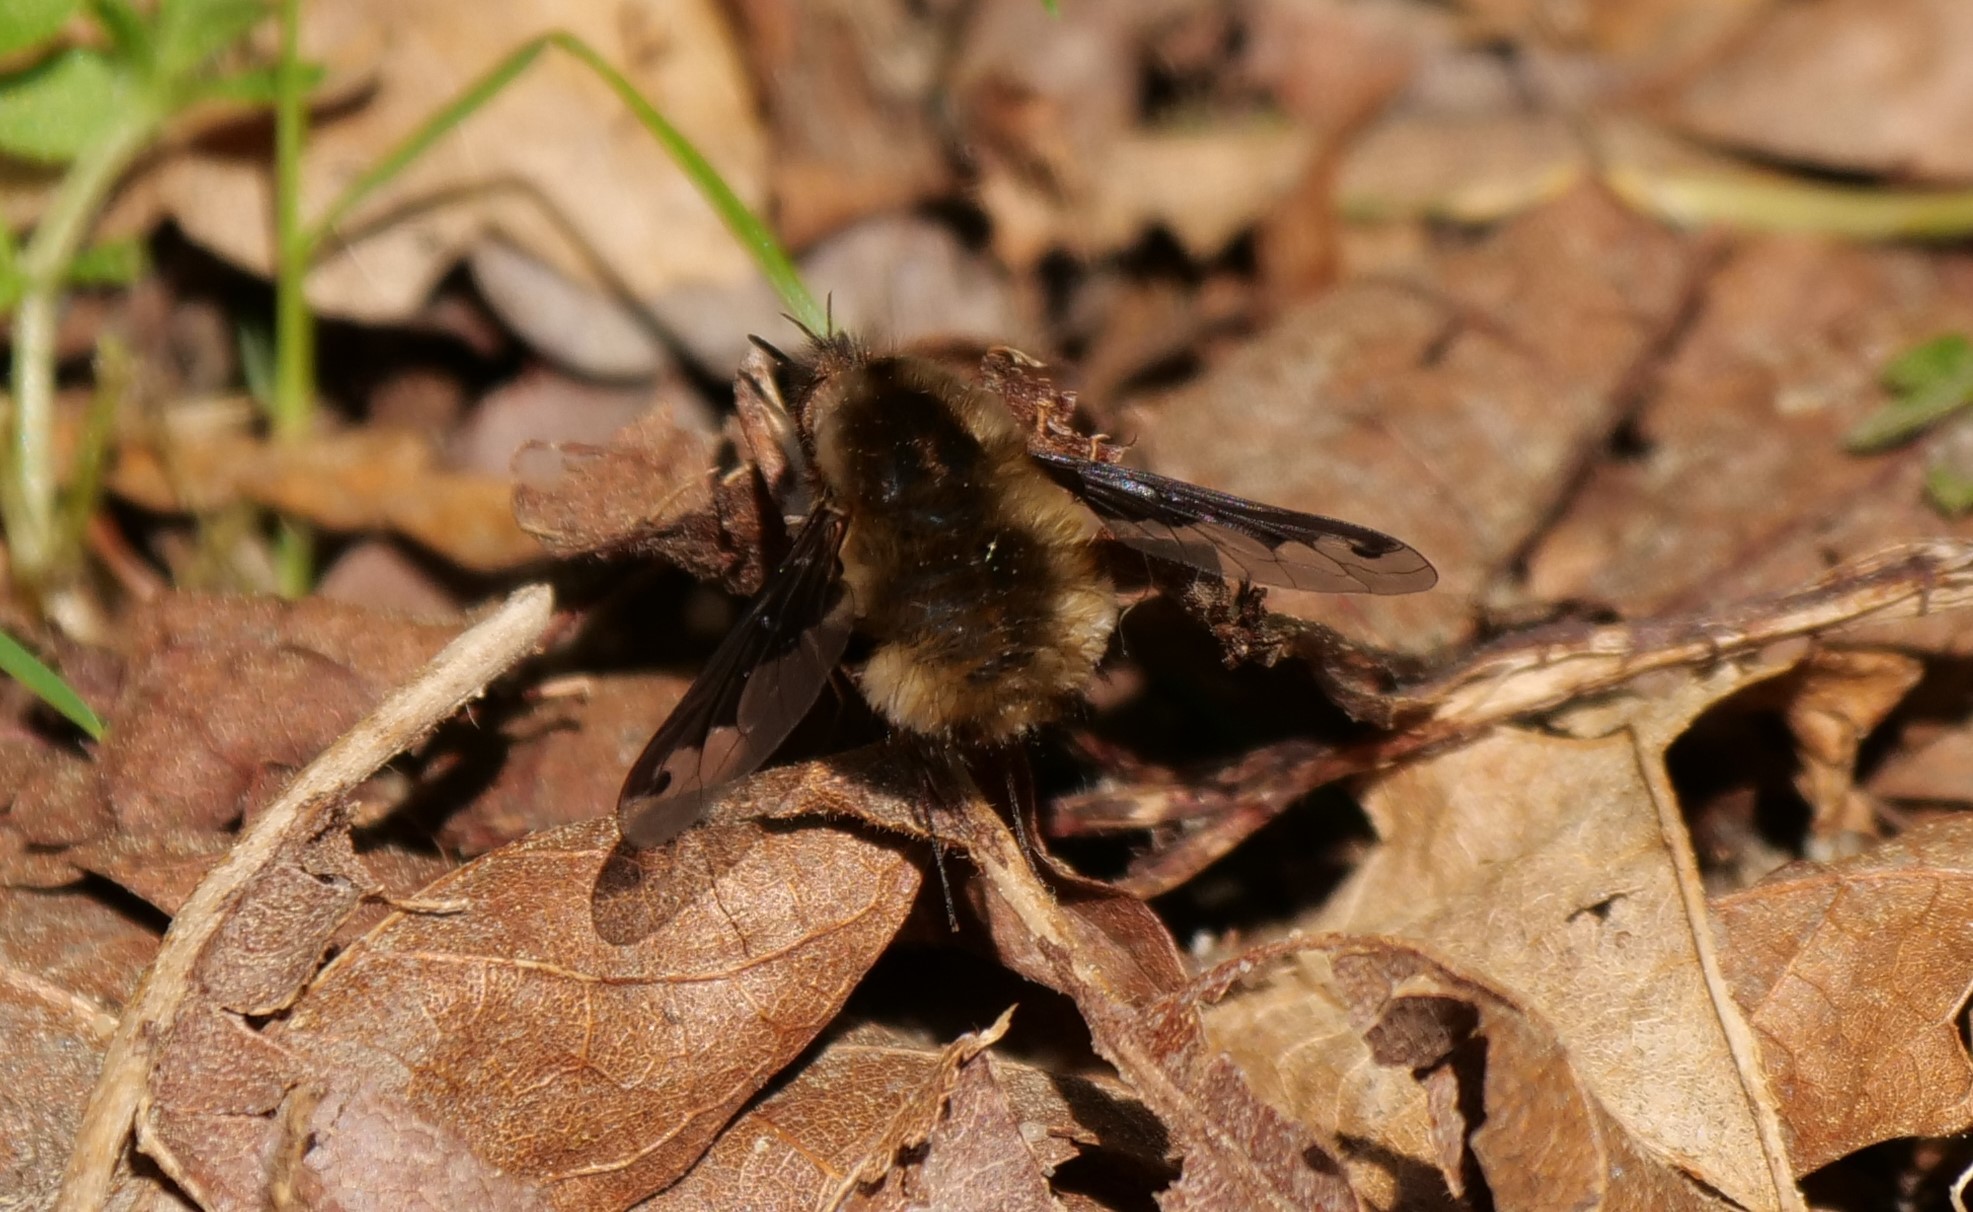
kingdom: Animalia
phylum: Arthropoda
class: Insecta
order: Diptera
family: Bombyliidae
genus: Bombylius
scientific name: Bombylius major
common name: Bee fly
